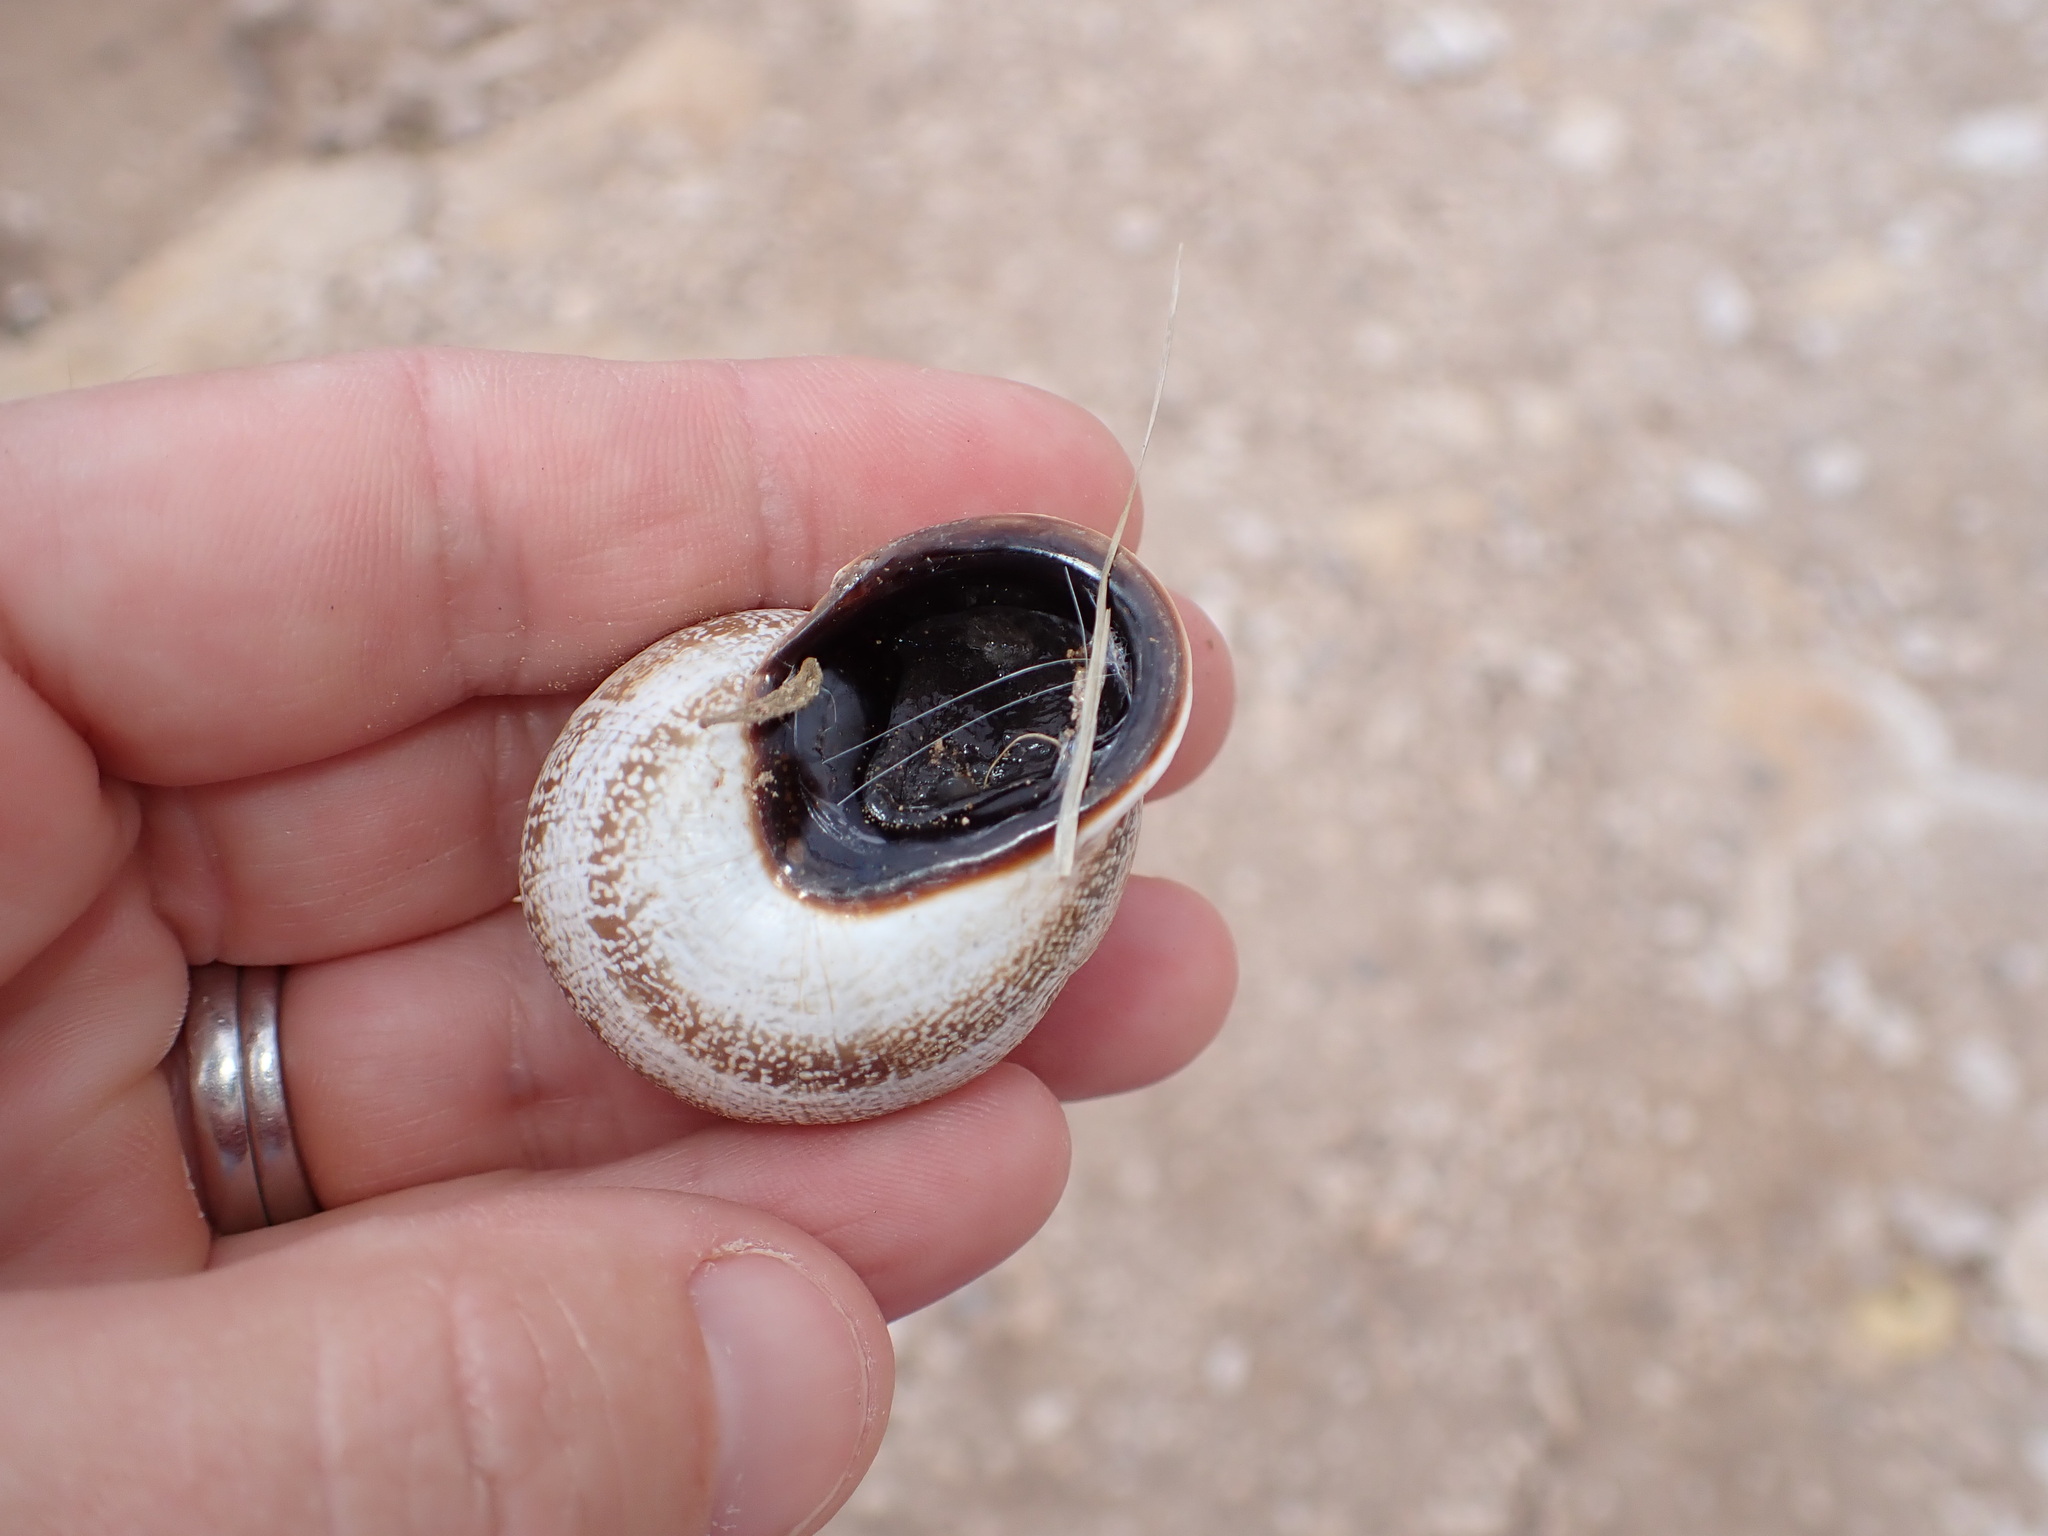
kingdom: Animalia
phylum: Mollusca
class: Gastropoda
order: Stylommatophora
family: Helicidae
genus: Otala
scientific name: Otala lactea
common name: Milk snail
